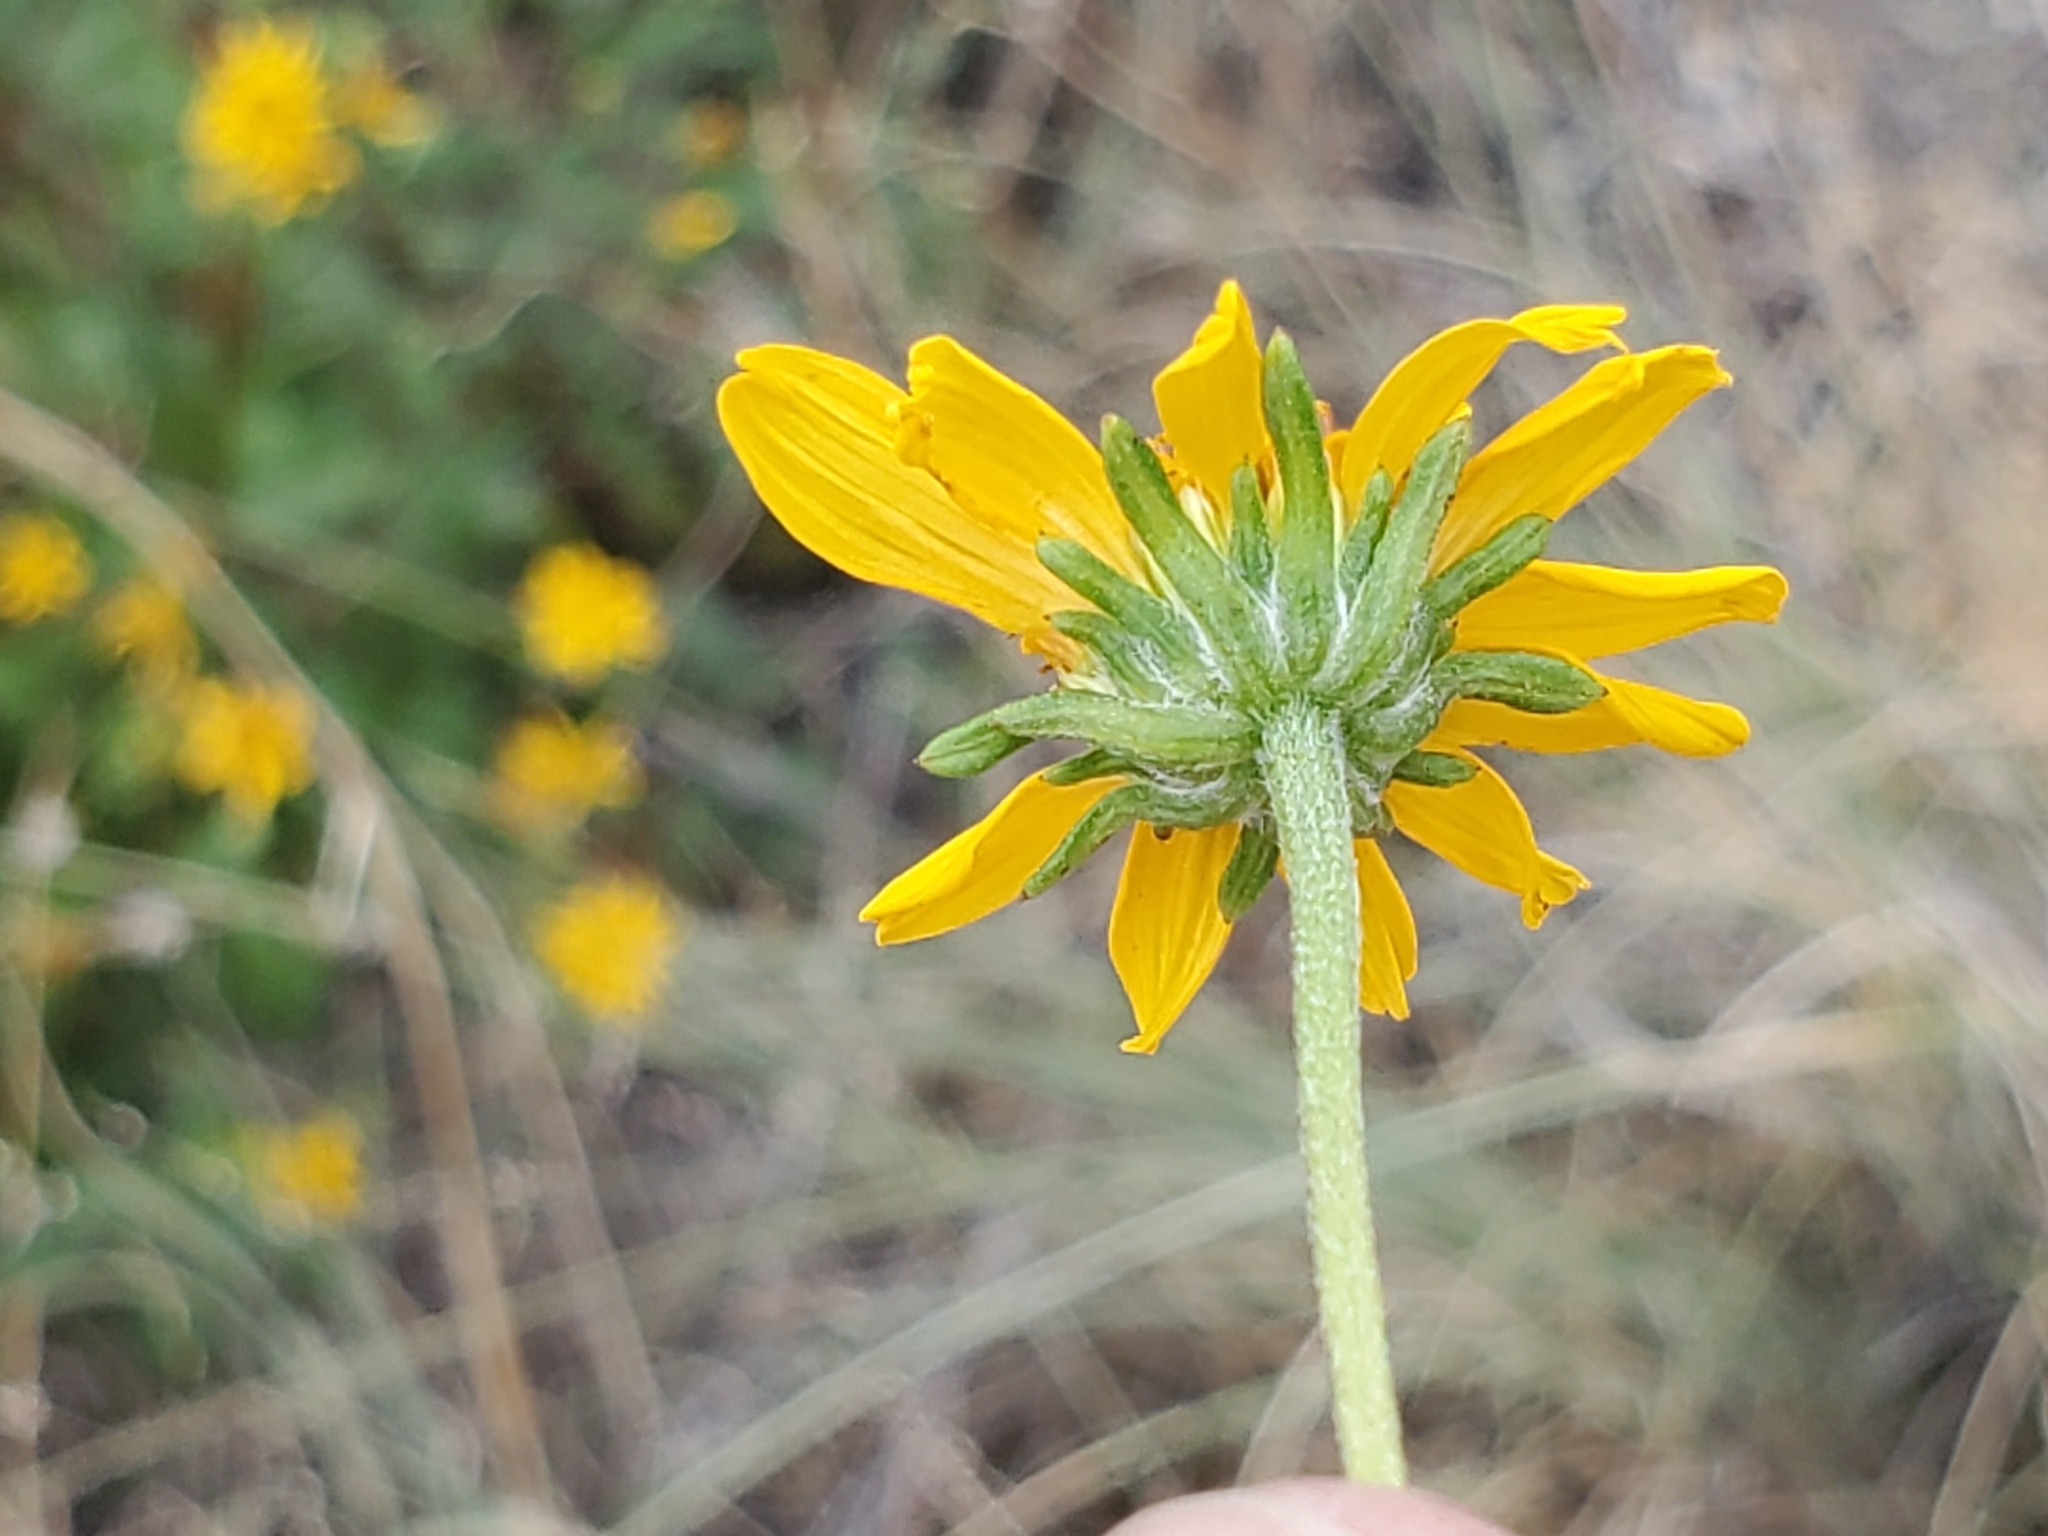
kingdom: Plantae
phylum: Tracheophyta
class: Magnoliopsida
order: Asterales
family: Asteraceae
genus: Viguiera
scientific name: Viguiera dentata
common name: Toothleaf
